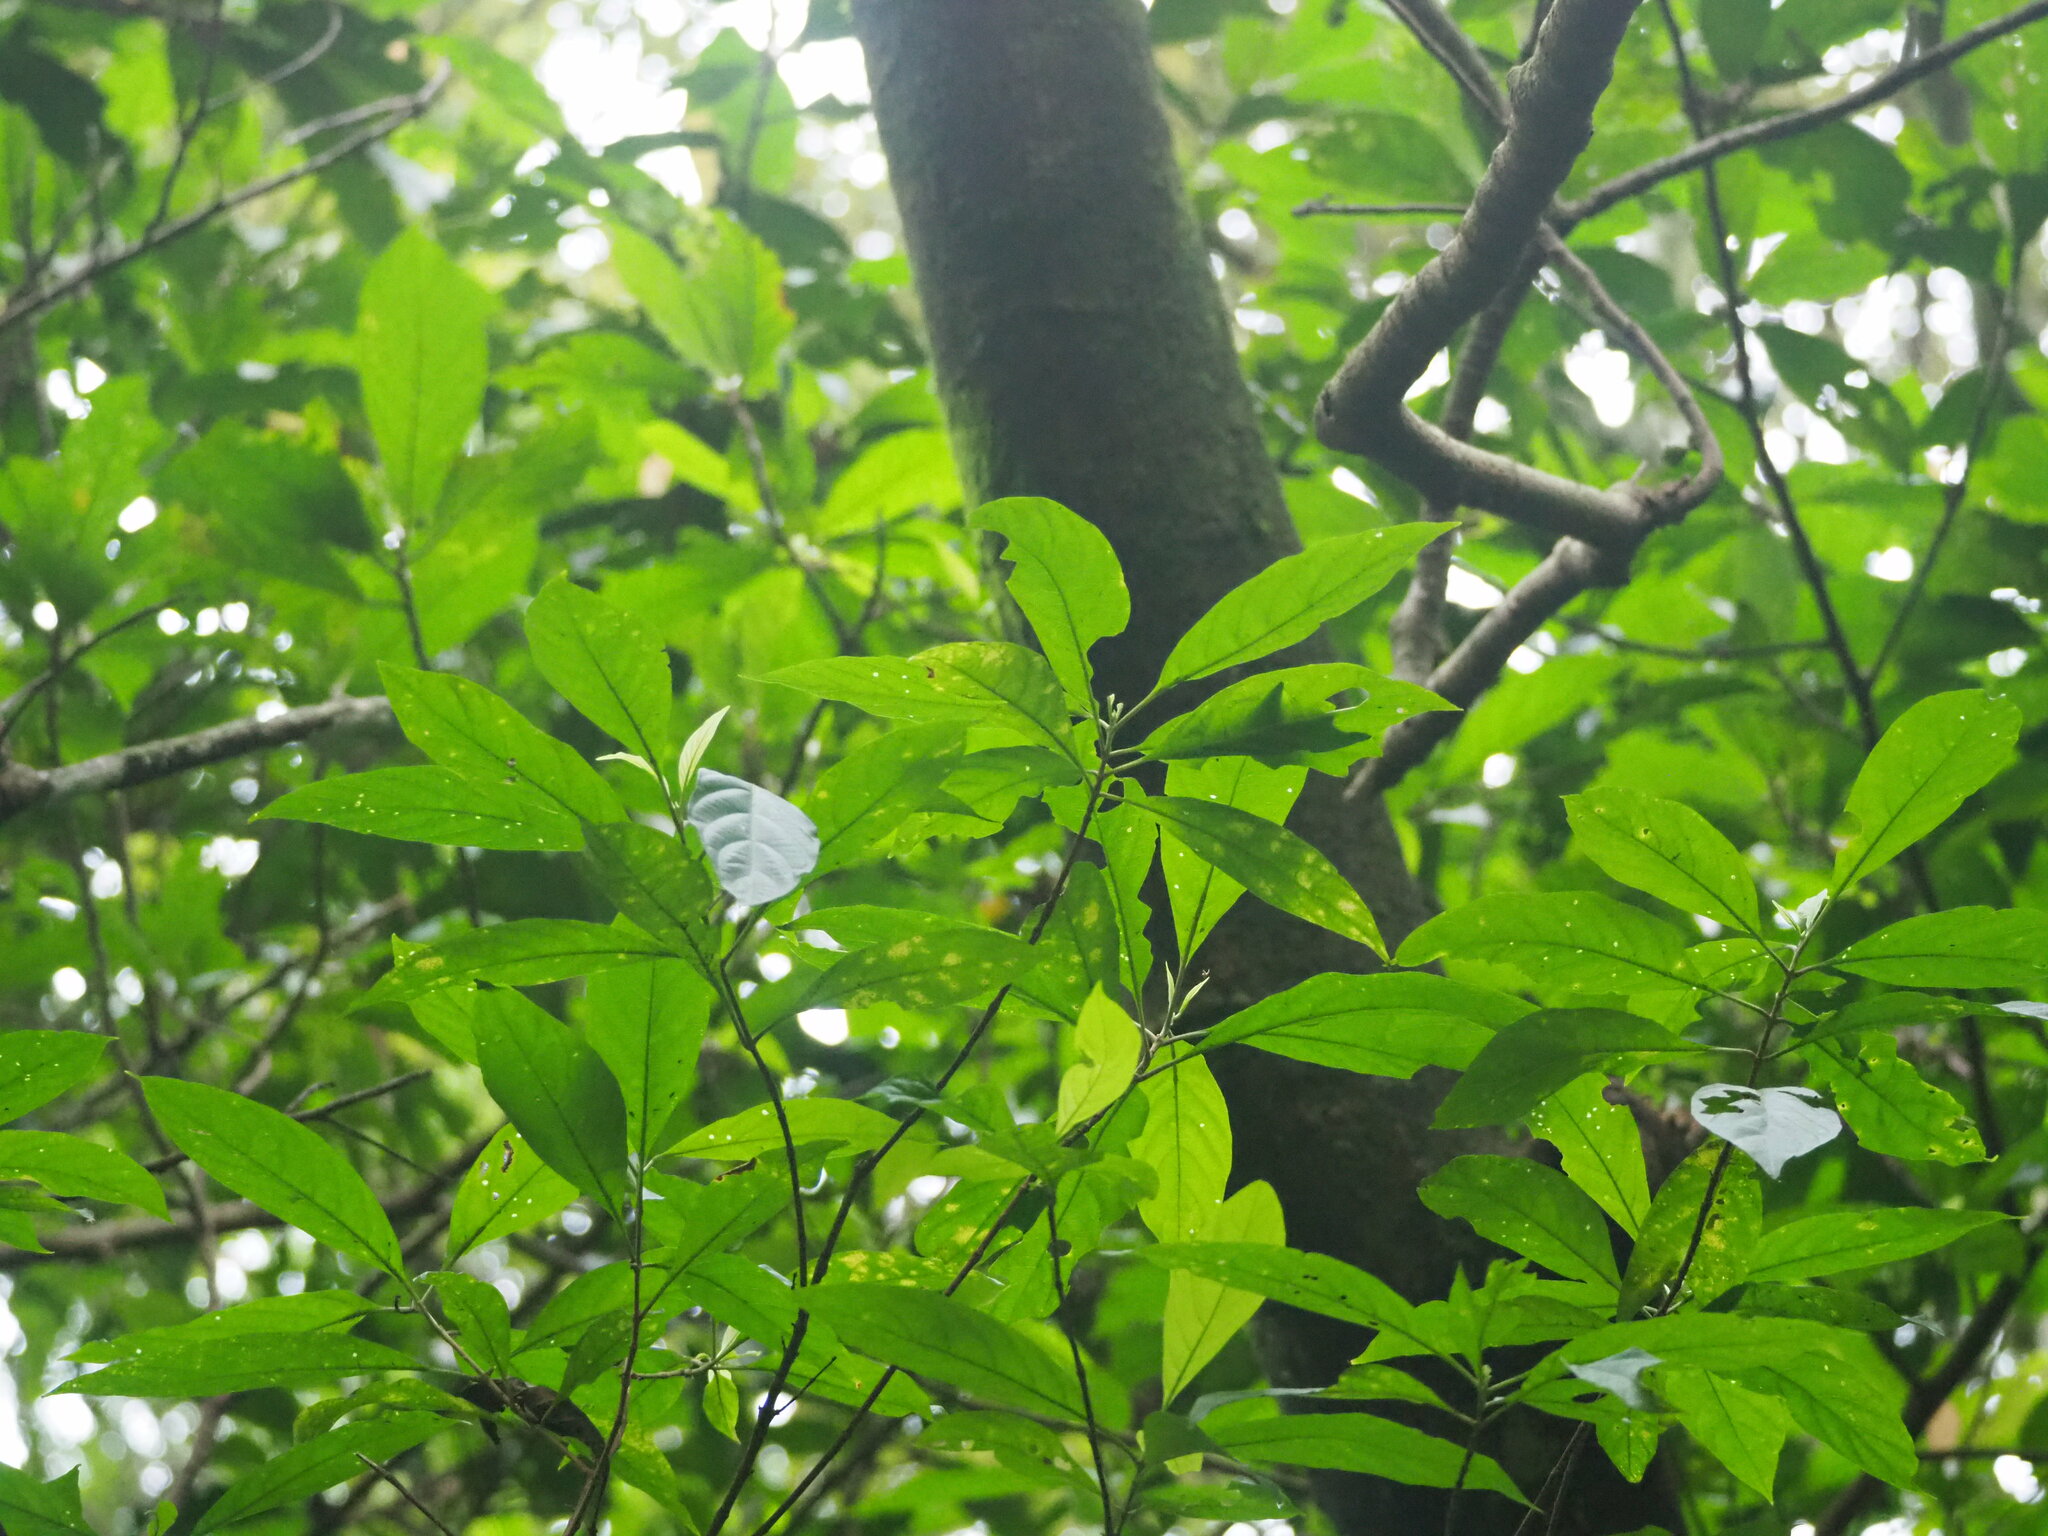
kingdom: Plantae
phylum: Tracheophyta
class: Magnoliopsida
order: Lamiales
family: Lamiaceae
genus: Clerodendrum
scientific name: Clerodendrum cyrtophyllum
